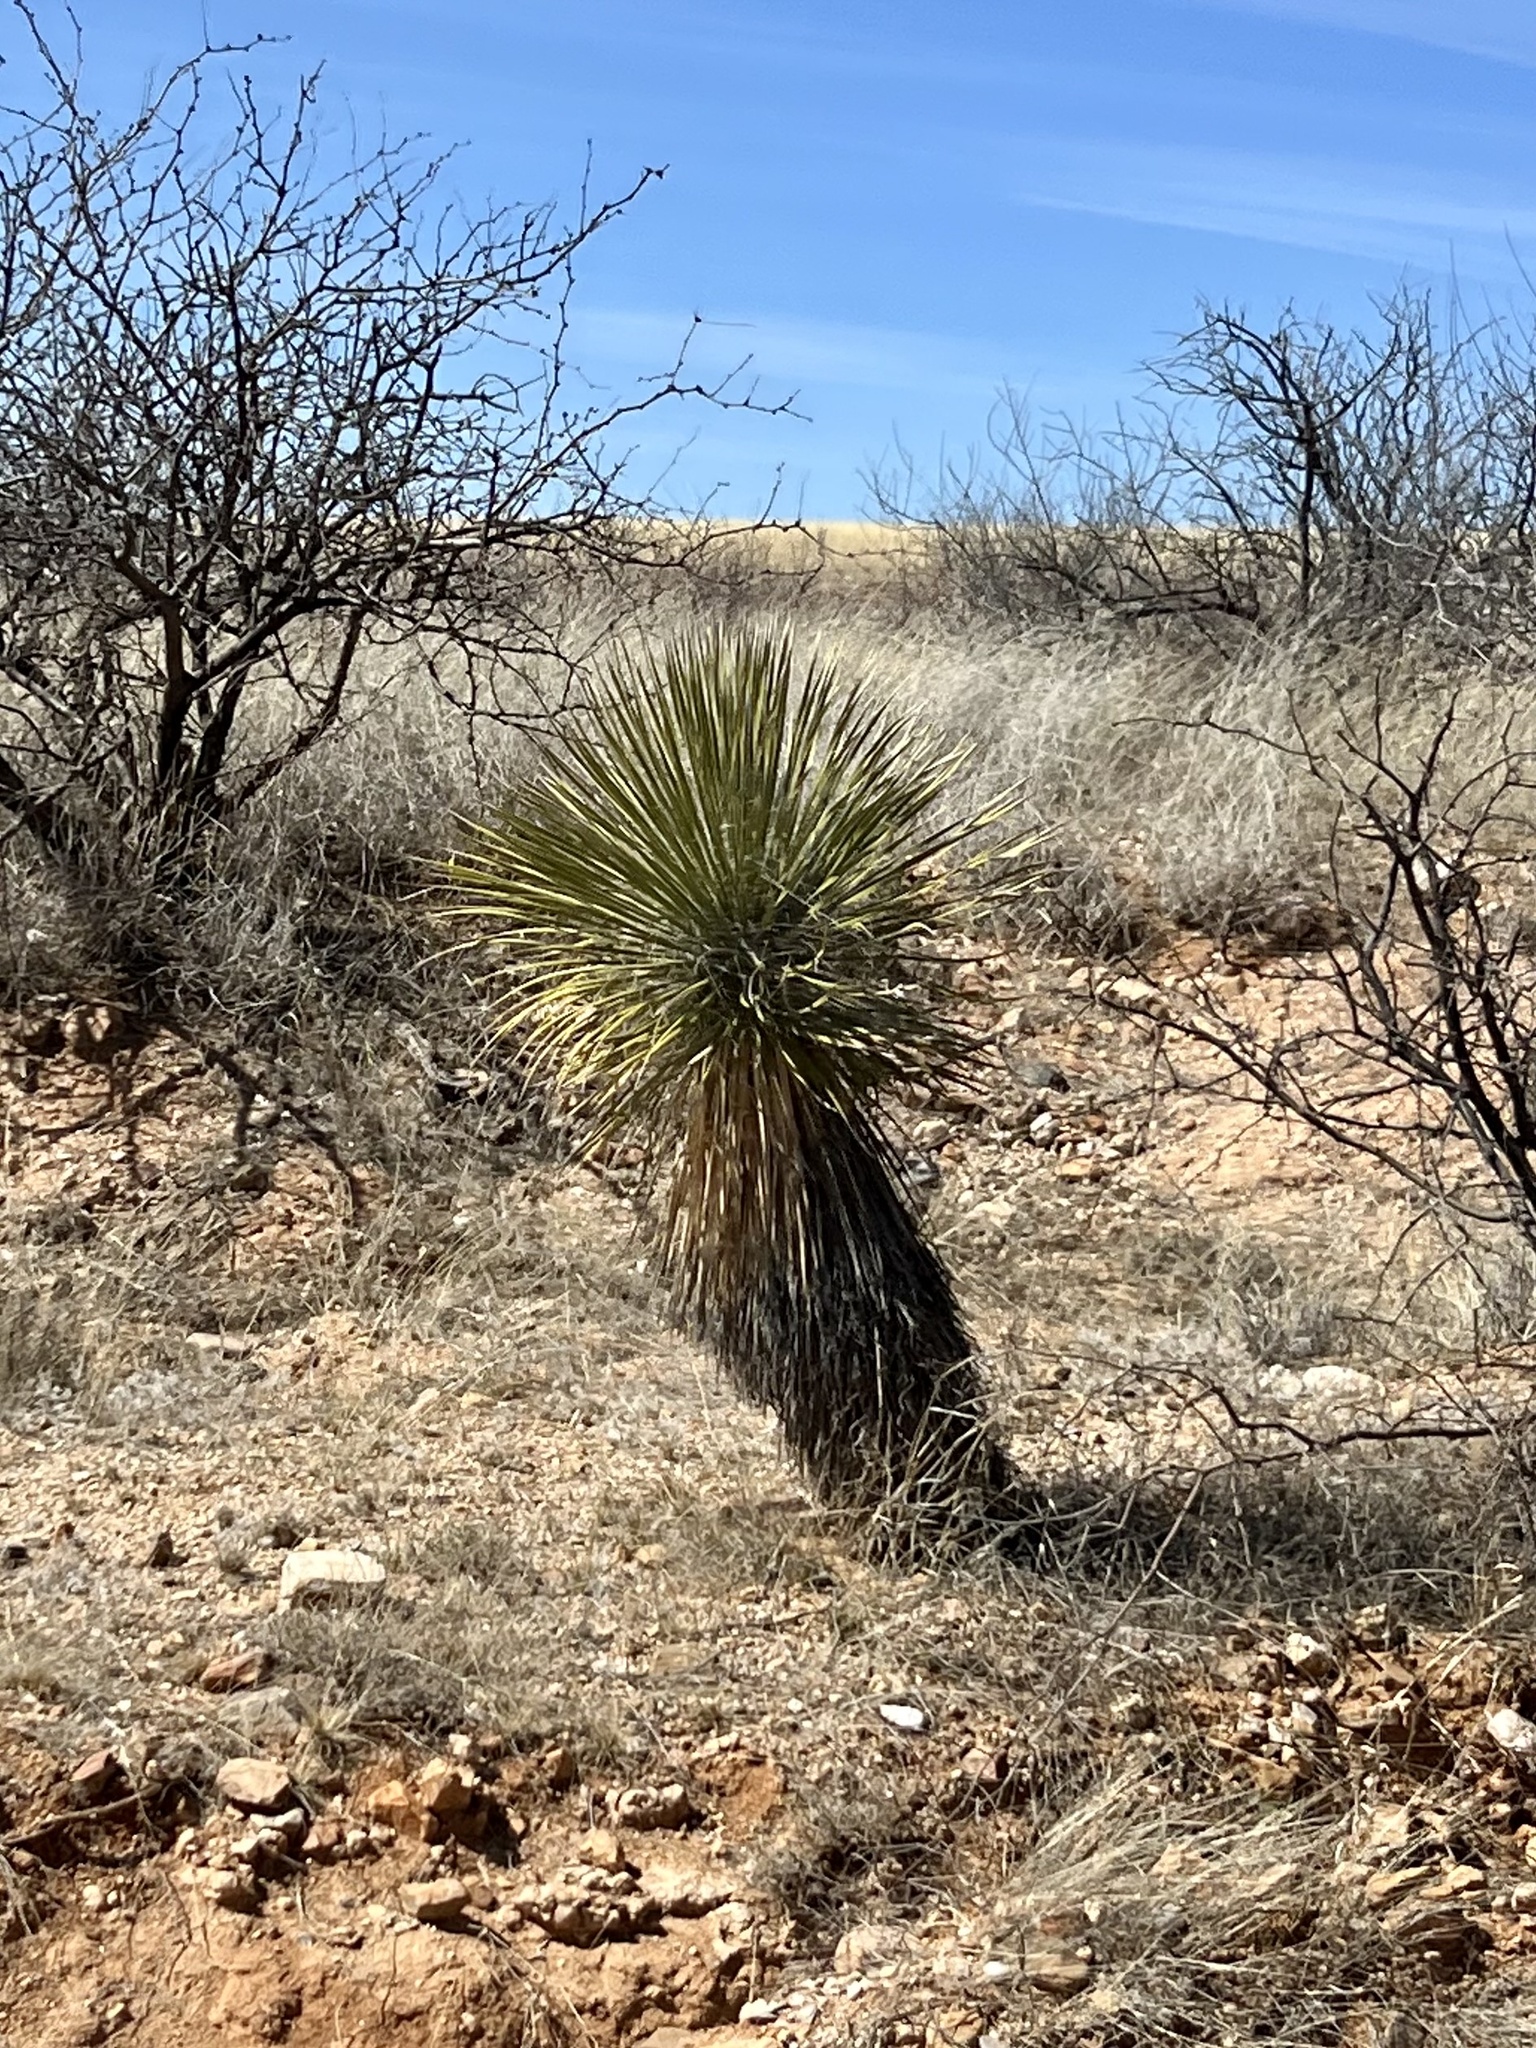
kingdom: Plantae
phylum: Tracheophyta
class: Liliopsida
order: Asparagales
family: Asparagaceae
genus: Yucca
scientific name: Yucca elata
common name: Palmella
